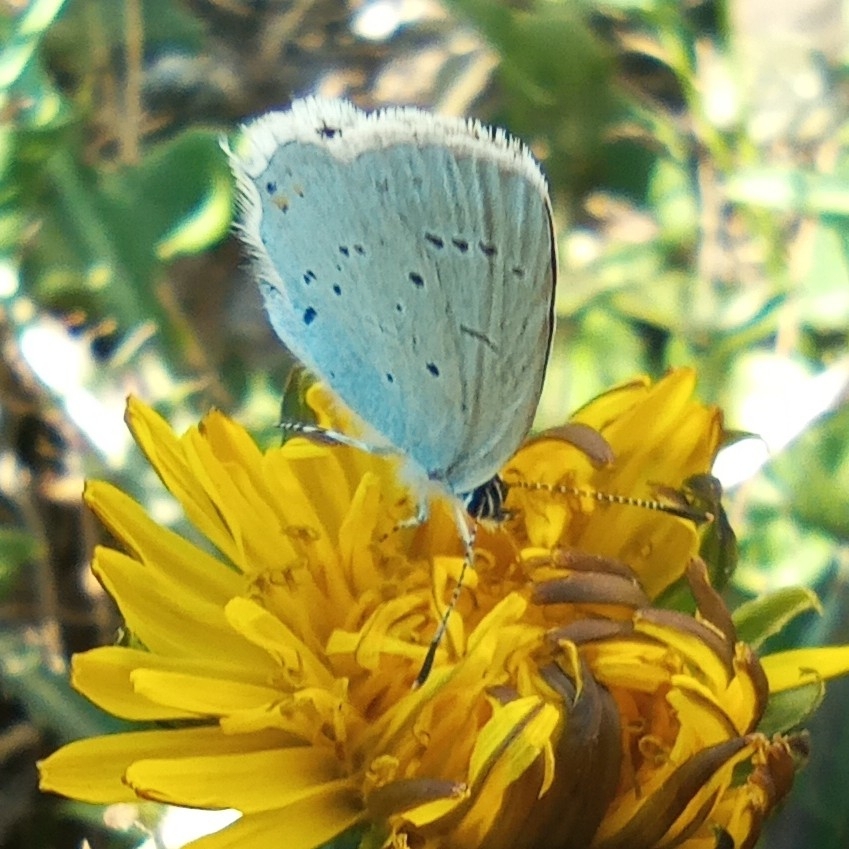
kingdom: Animalia
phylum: Arthropoda
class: Insecta
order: Lepidoptera
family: Lycaenidae
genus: Elkalyce
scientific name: Elkalyce argiades
